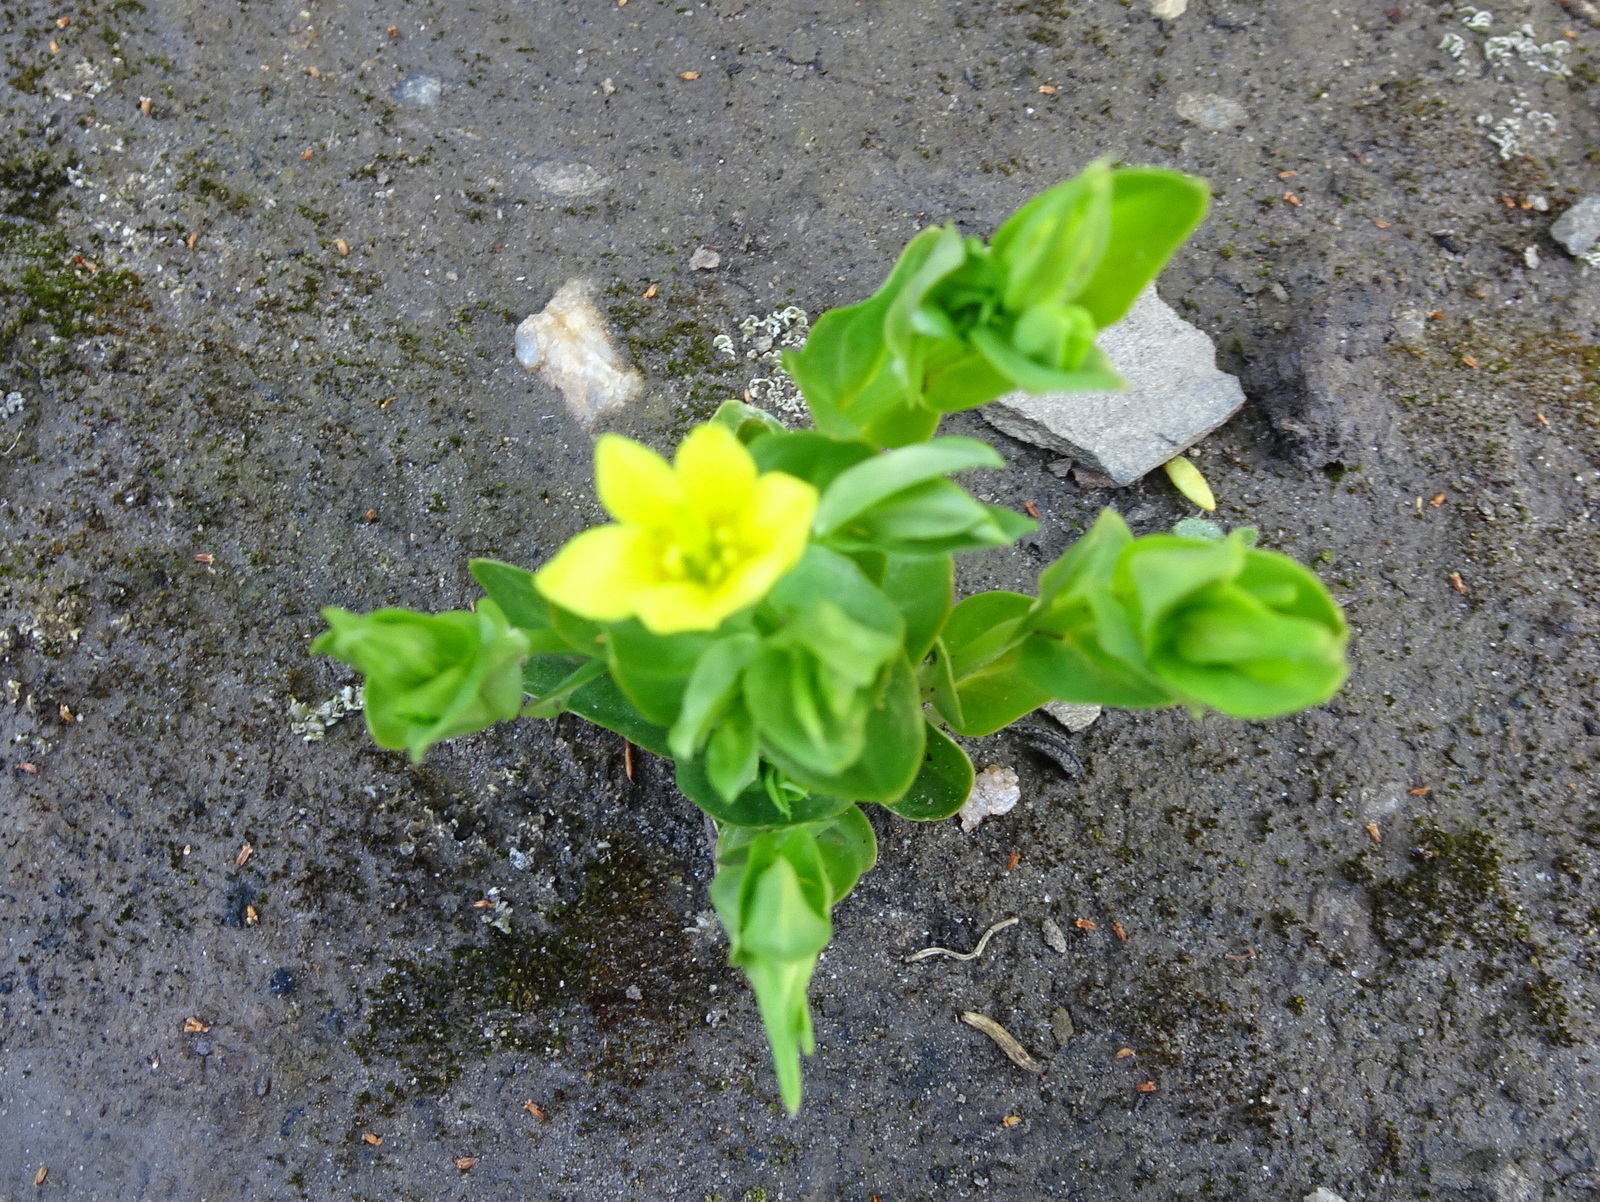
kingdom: Plantae
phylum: Tracheophyta
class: Magnoliopsida
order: Gentianales
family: Gentianaceae
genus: Blackstonia
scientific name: Blackstonia perfoliata
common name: Yellow-wort
